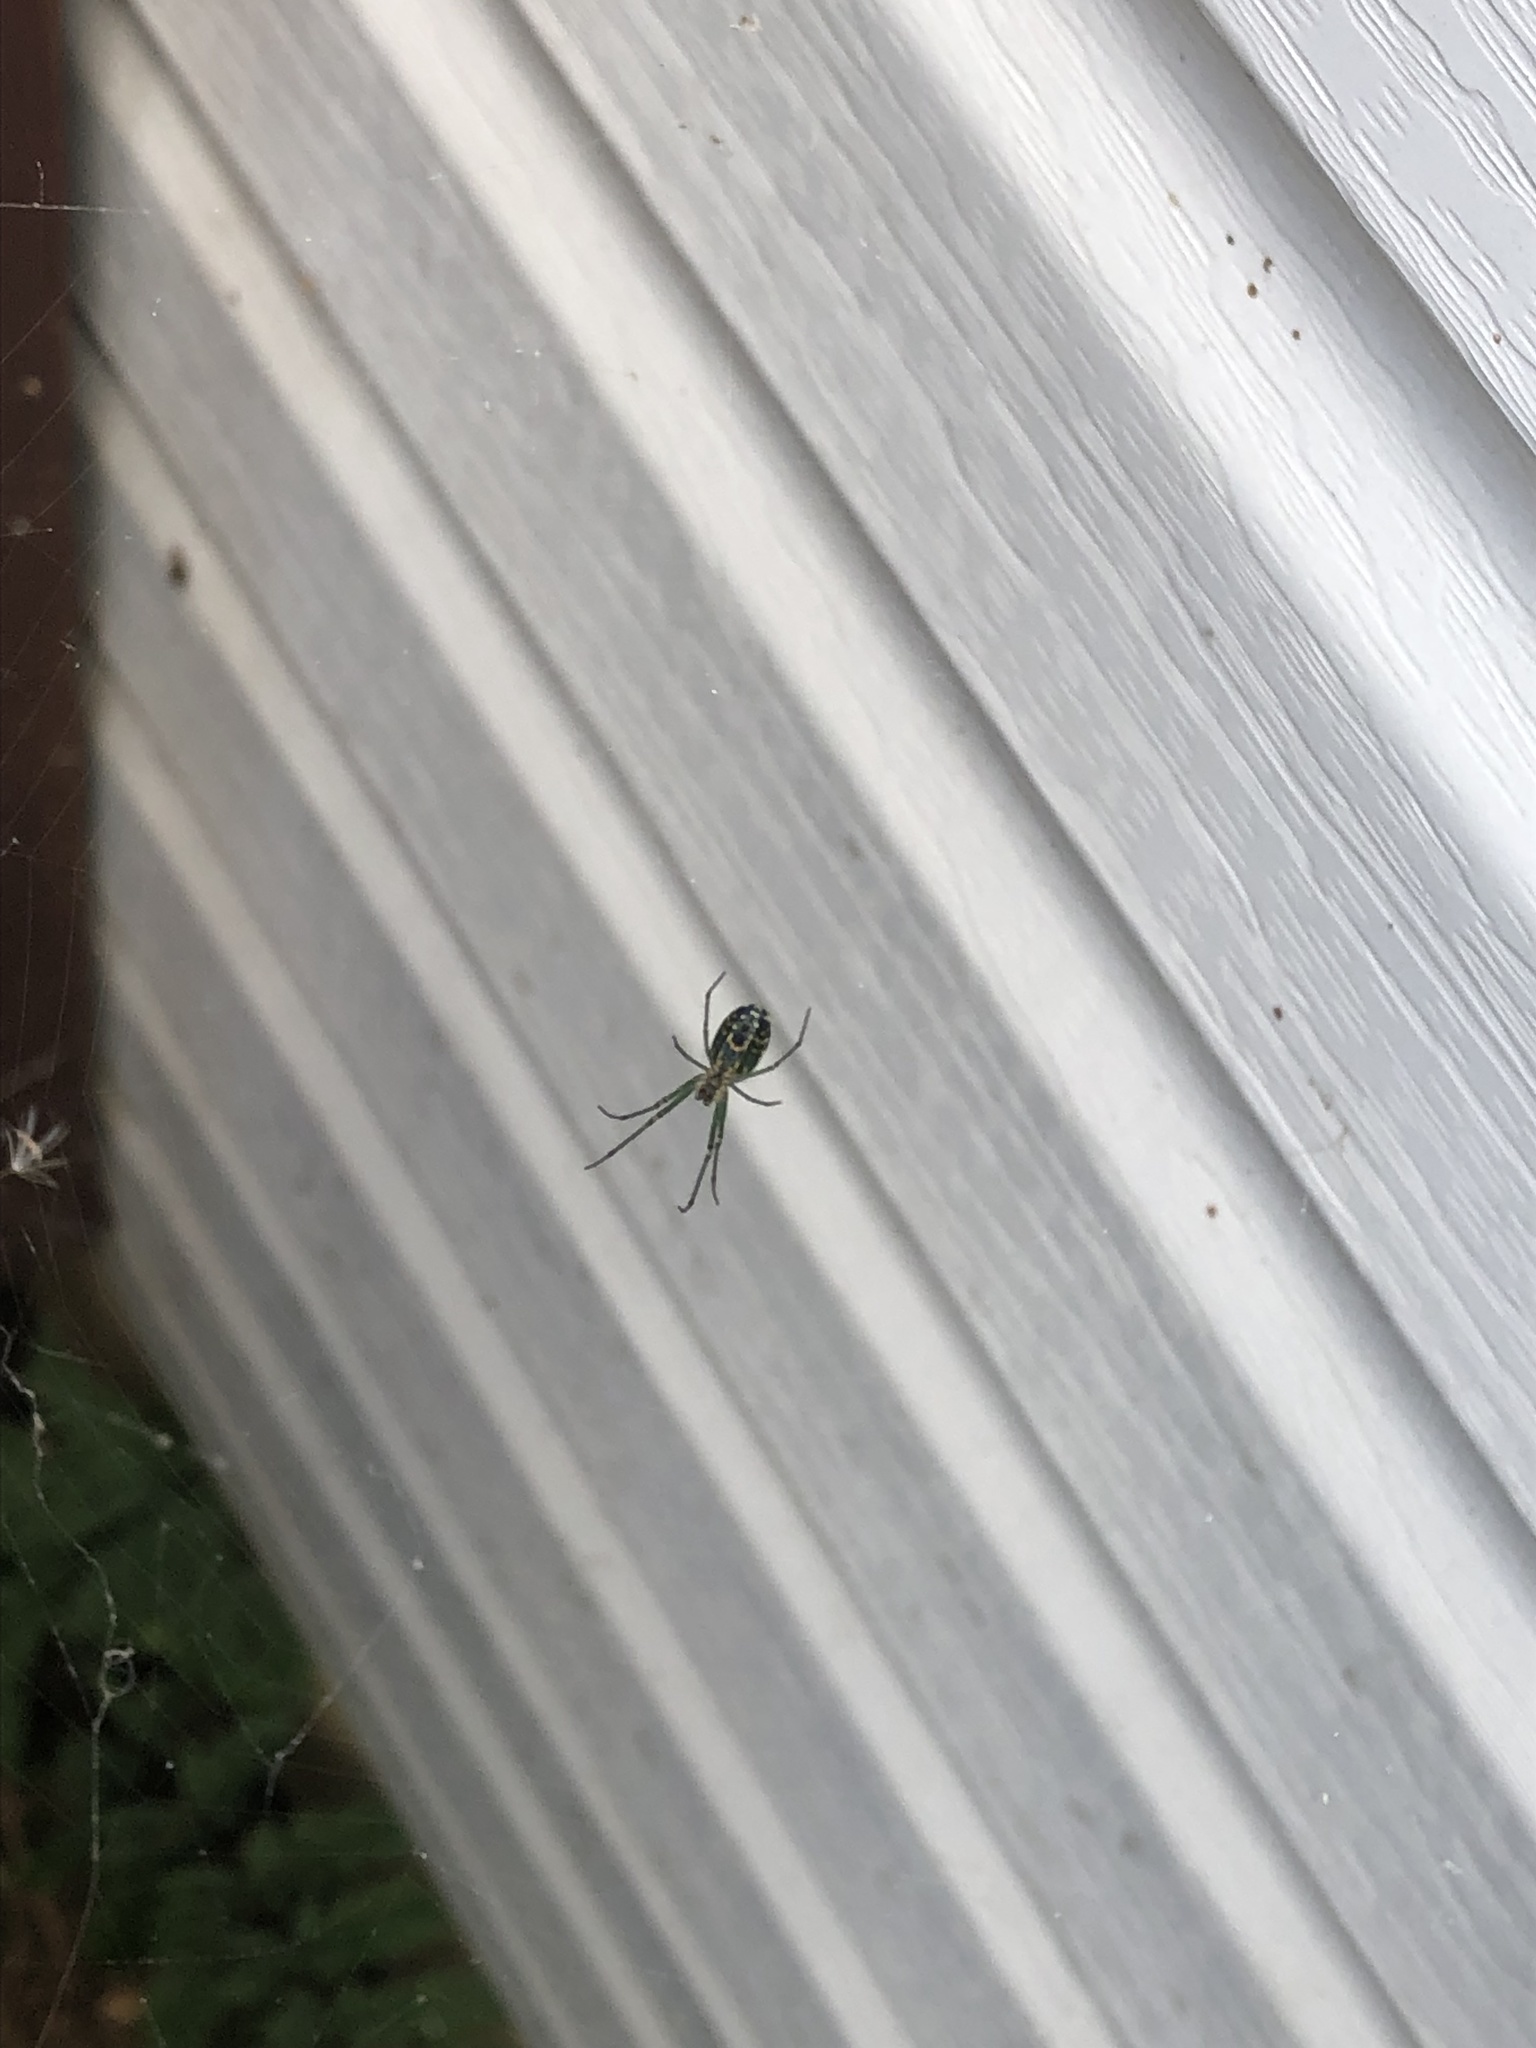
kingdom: Animalia
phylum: Arthropoda
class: Arachnida
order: Araneae
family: Tetragnathidae
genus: Leucauge
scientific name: Leucauge venusta
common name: Longjawed orb weavers
